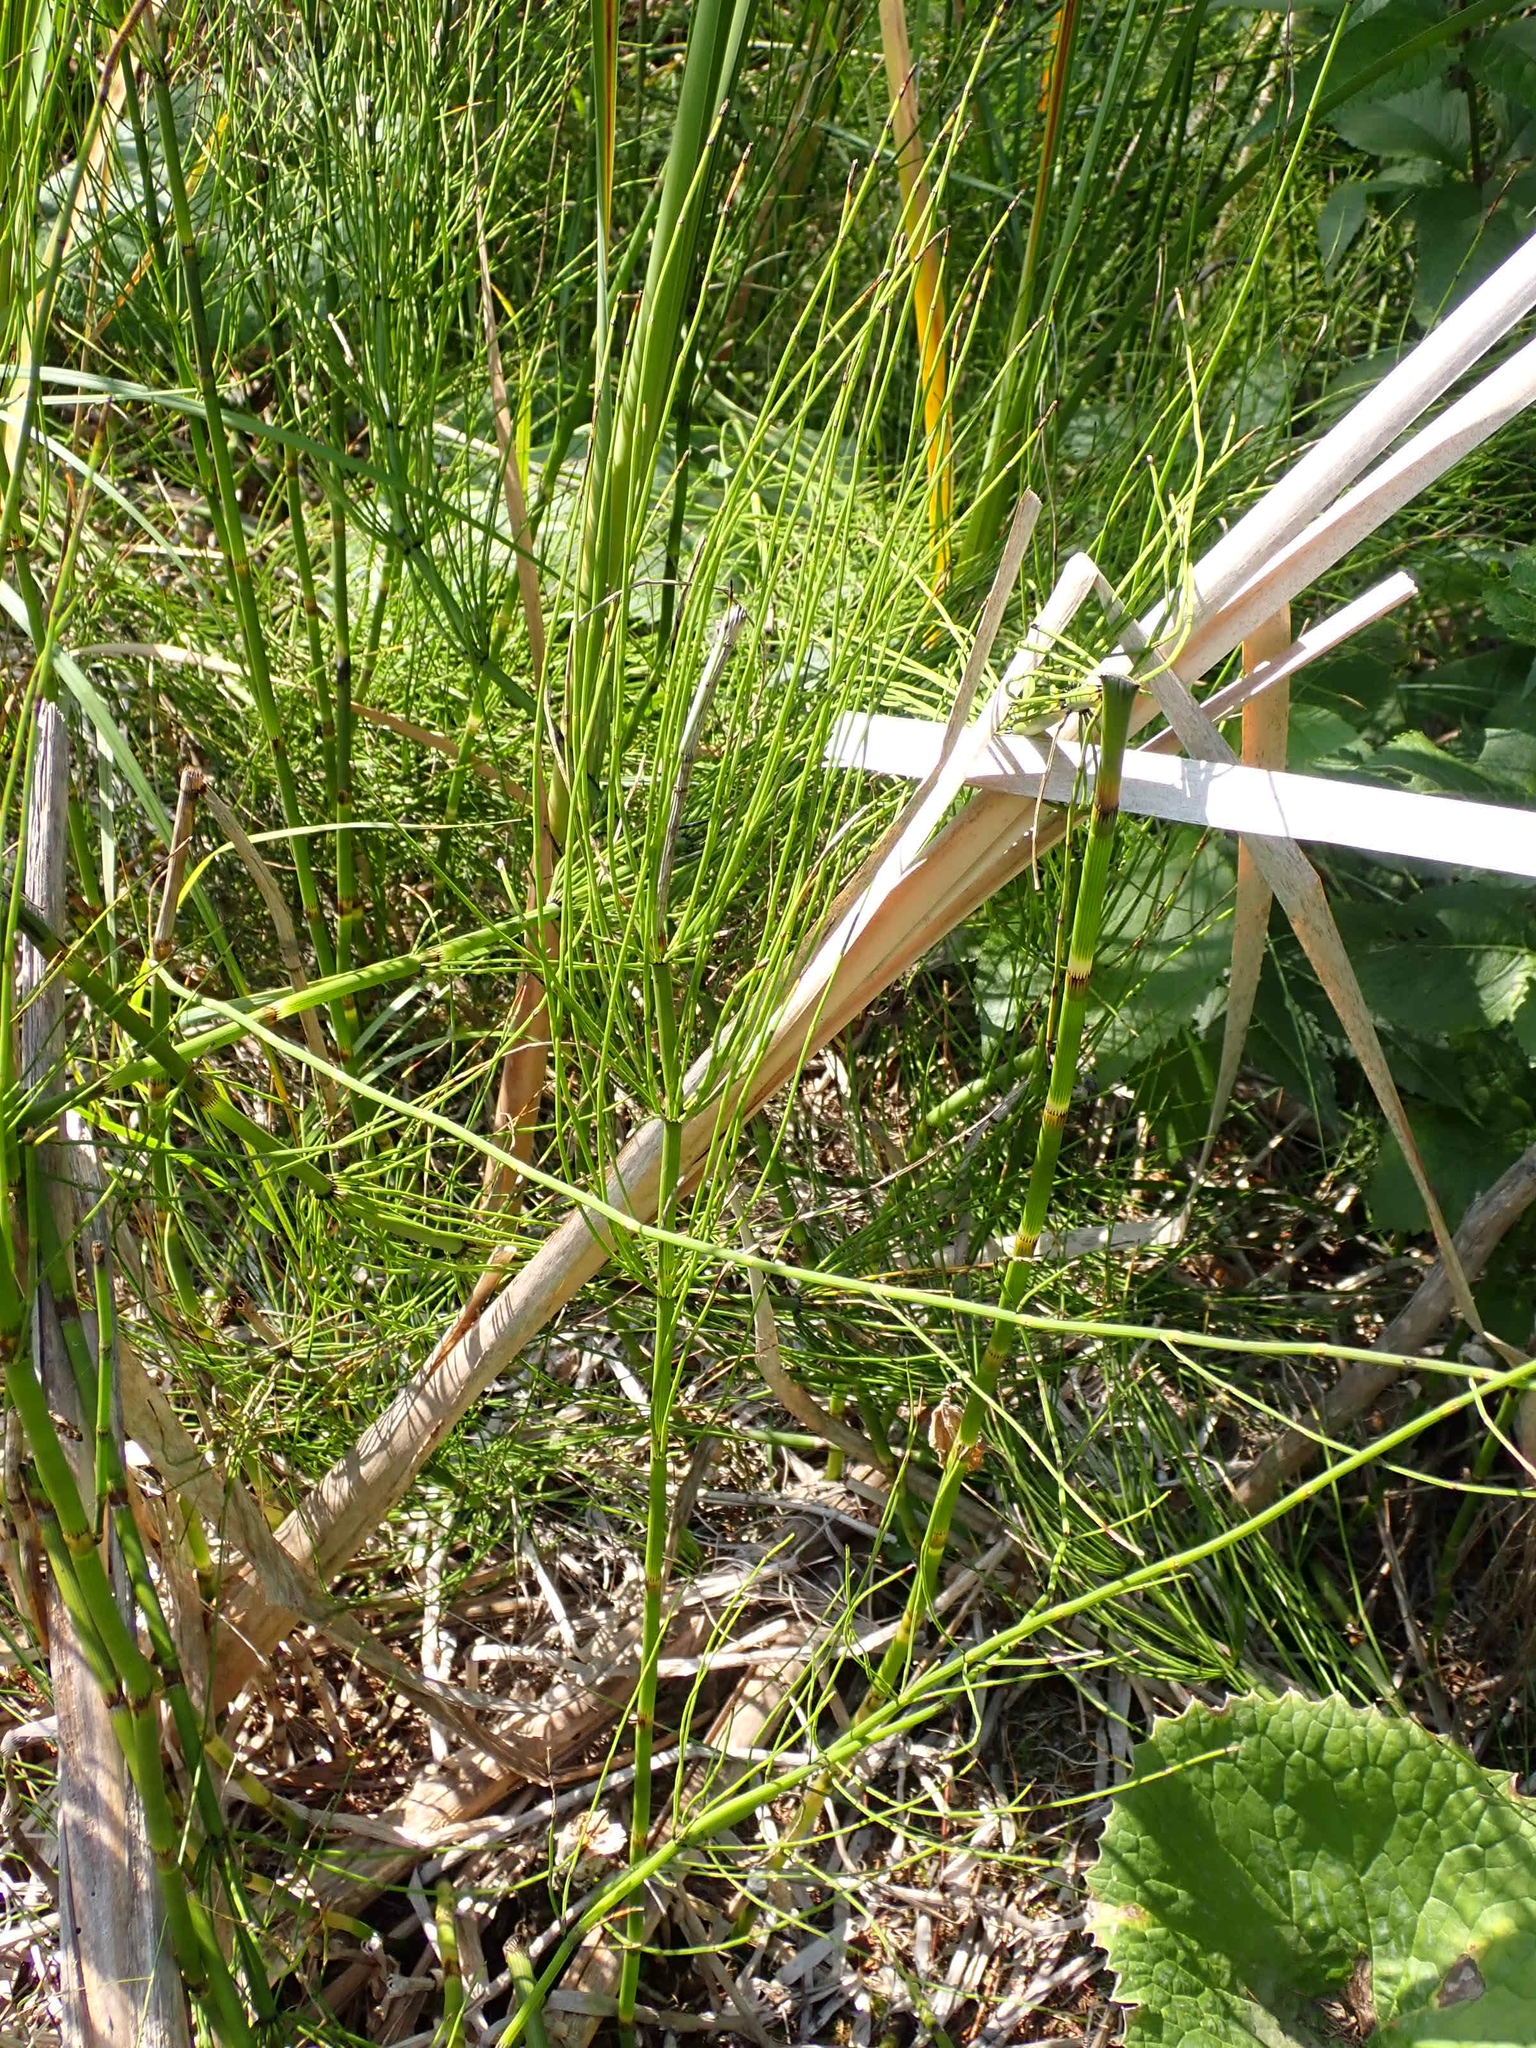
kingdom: Plantae
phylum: Tracheophyta
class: Polypodiopsida
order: Equisetales
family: Equisetaceae
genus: Equisetum
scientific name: Equisetum fluviatile
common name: Water horsetail
